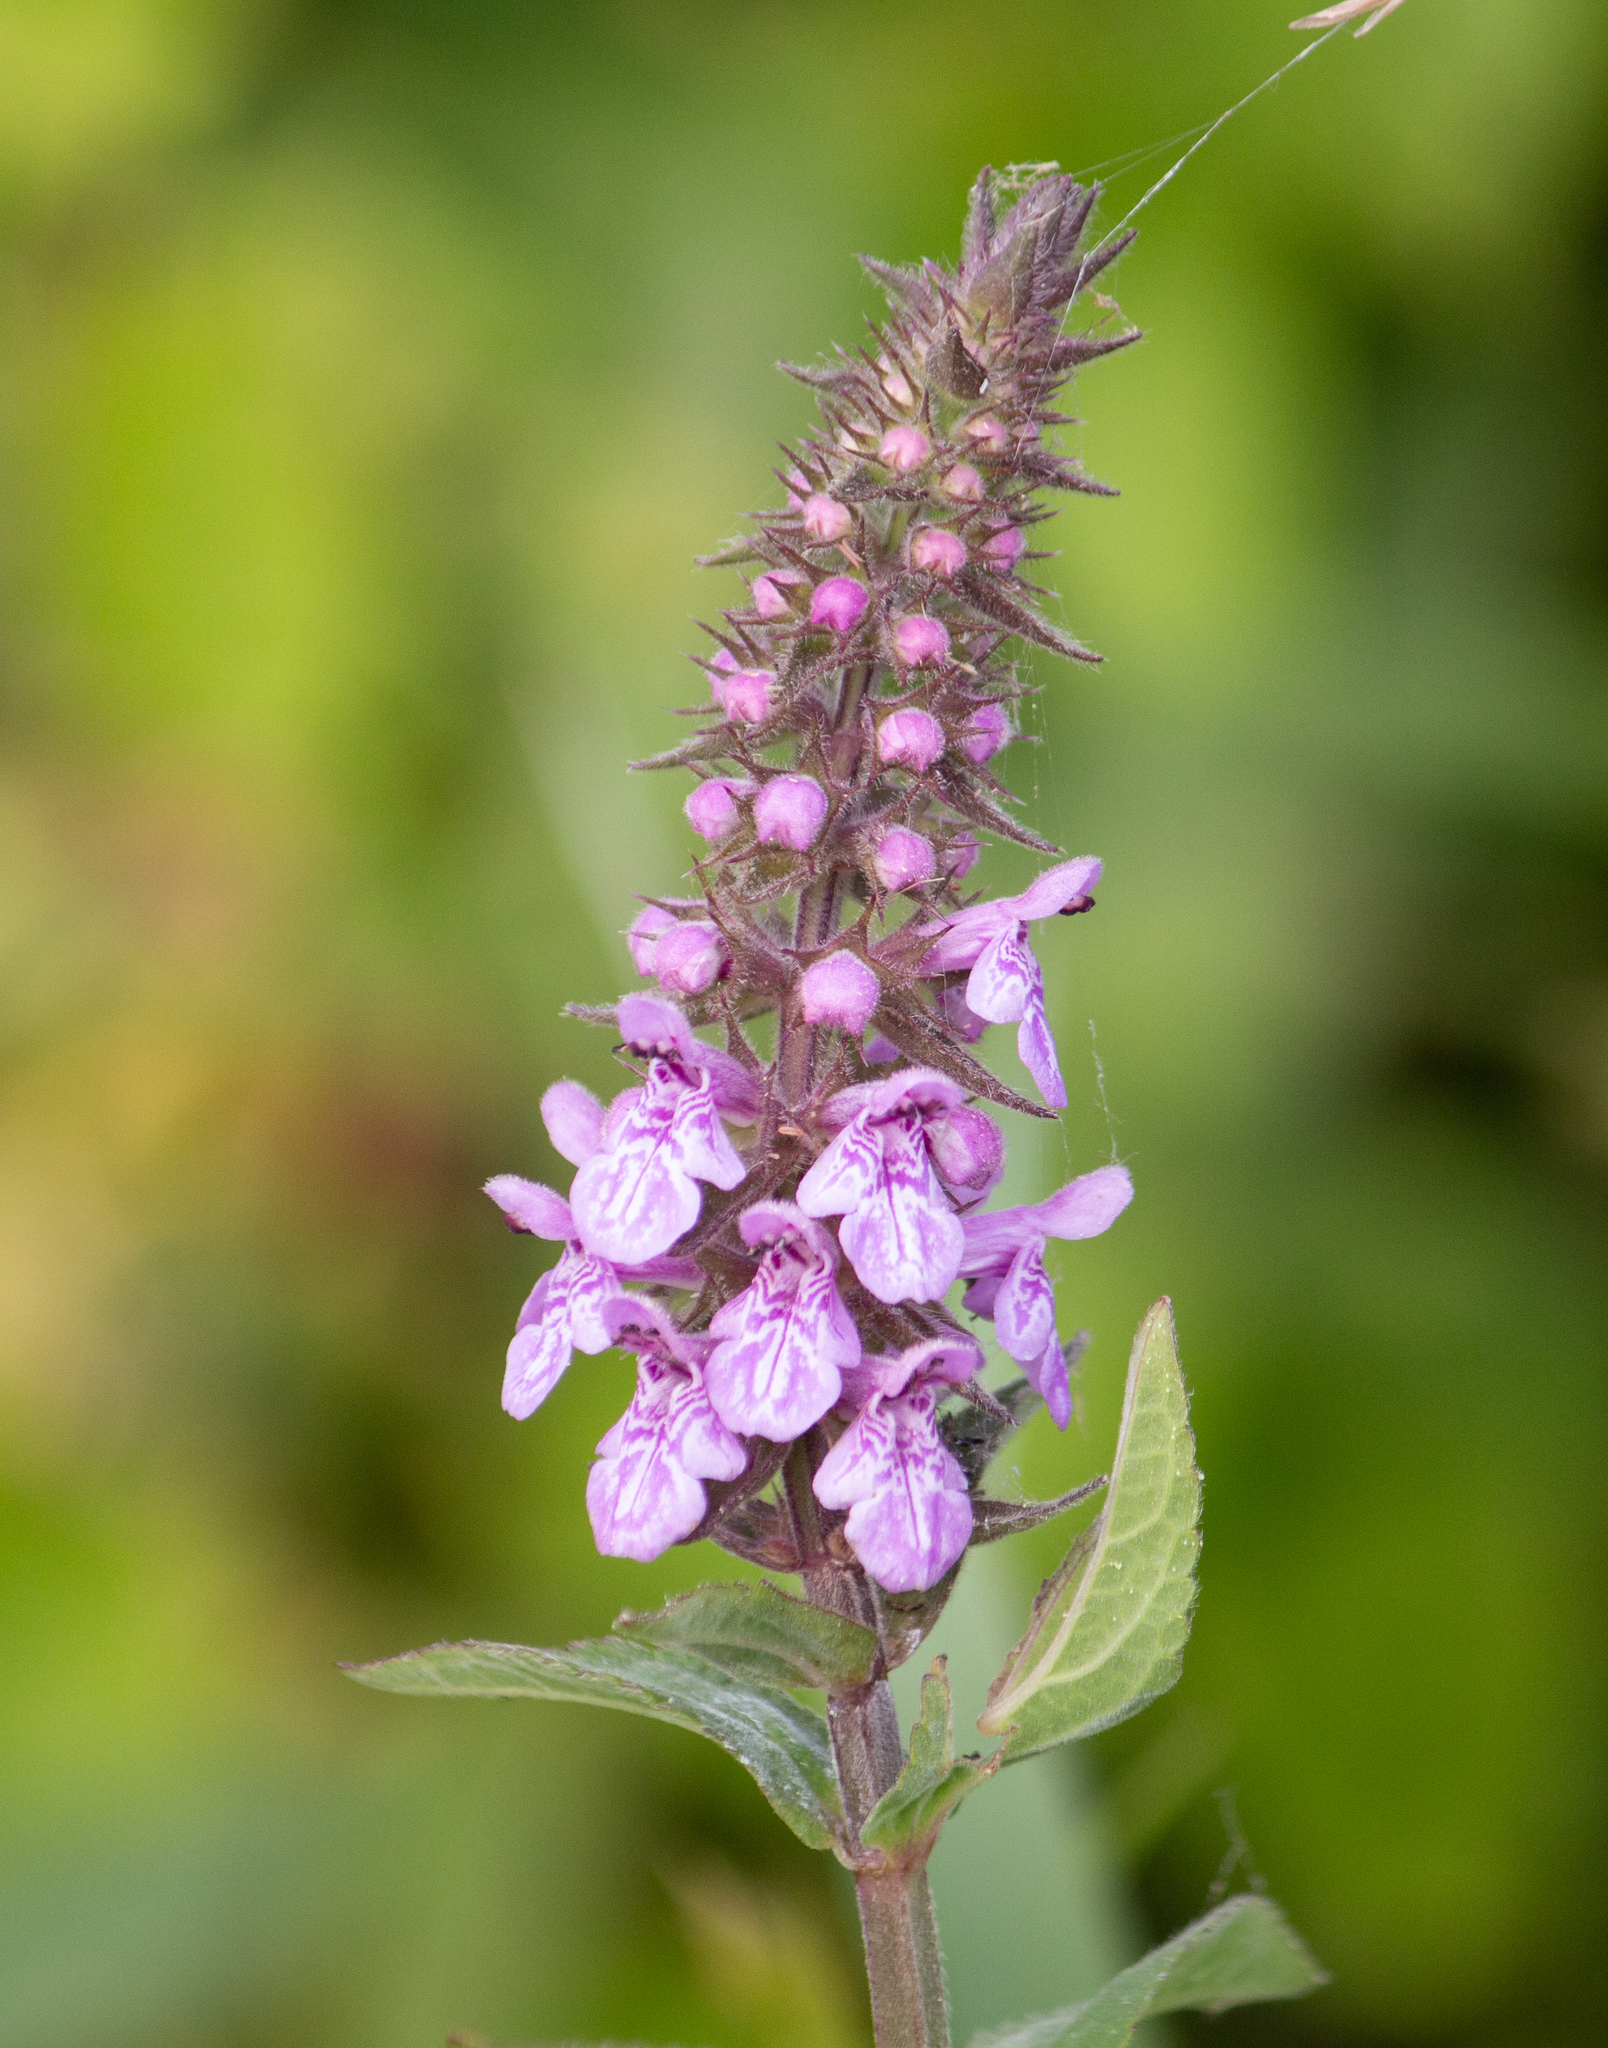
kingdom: Plantae
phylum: Tracheophyta
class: Magnoliopsida
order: Lamiales
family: Lamiaceae
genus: Stachys
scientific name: Stachys palustris
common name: Marsh woundwort
